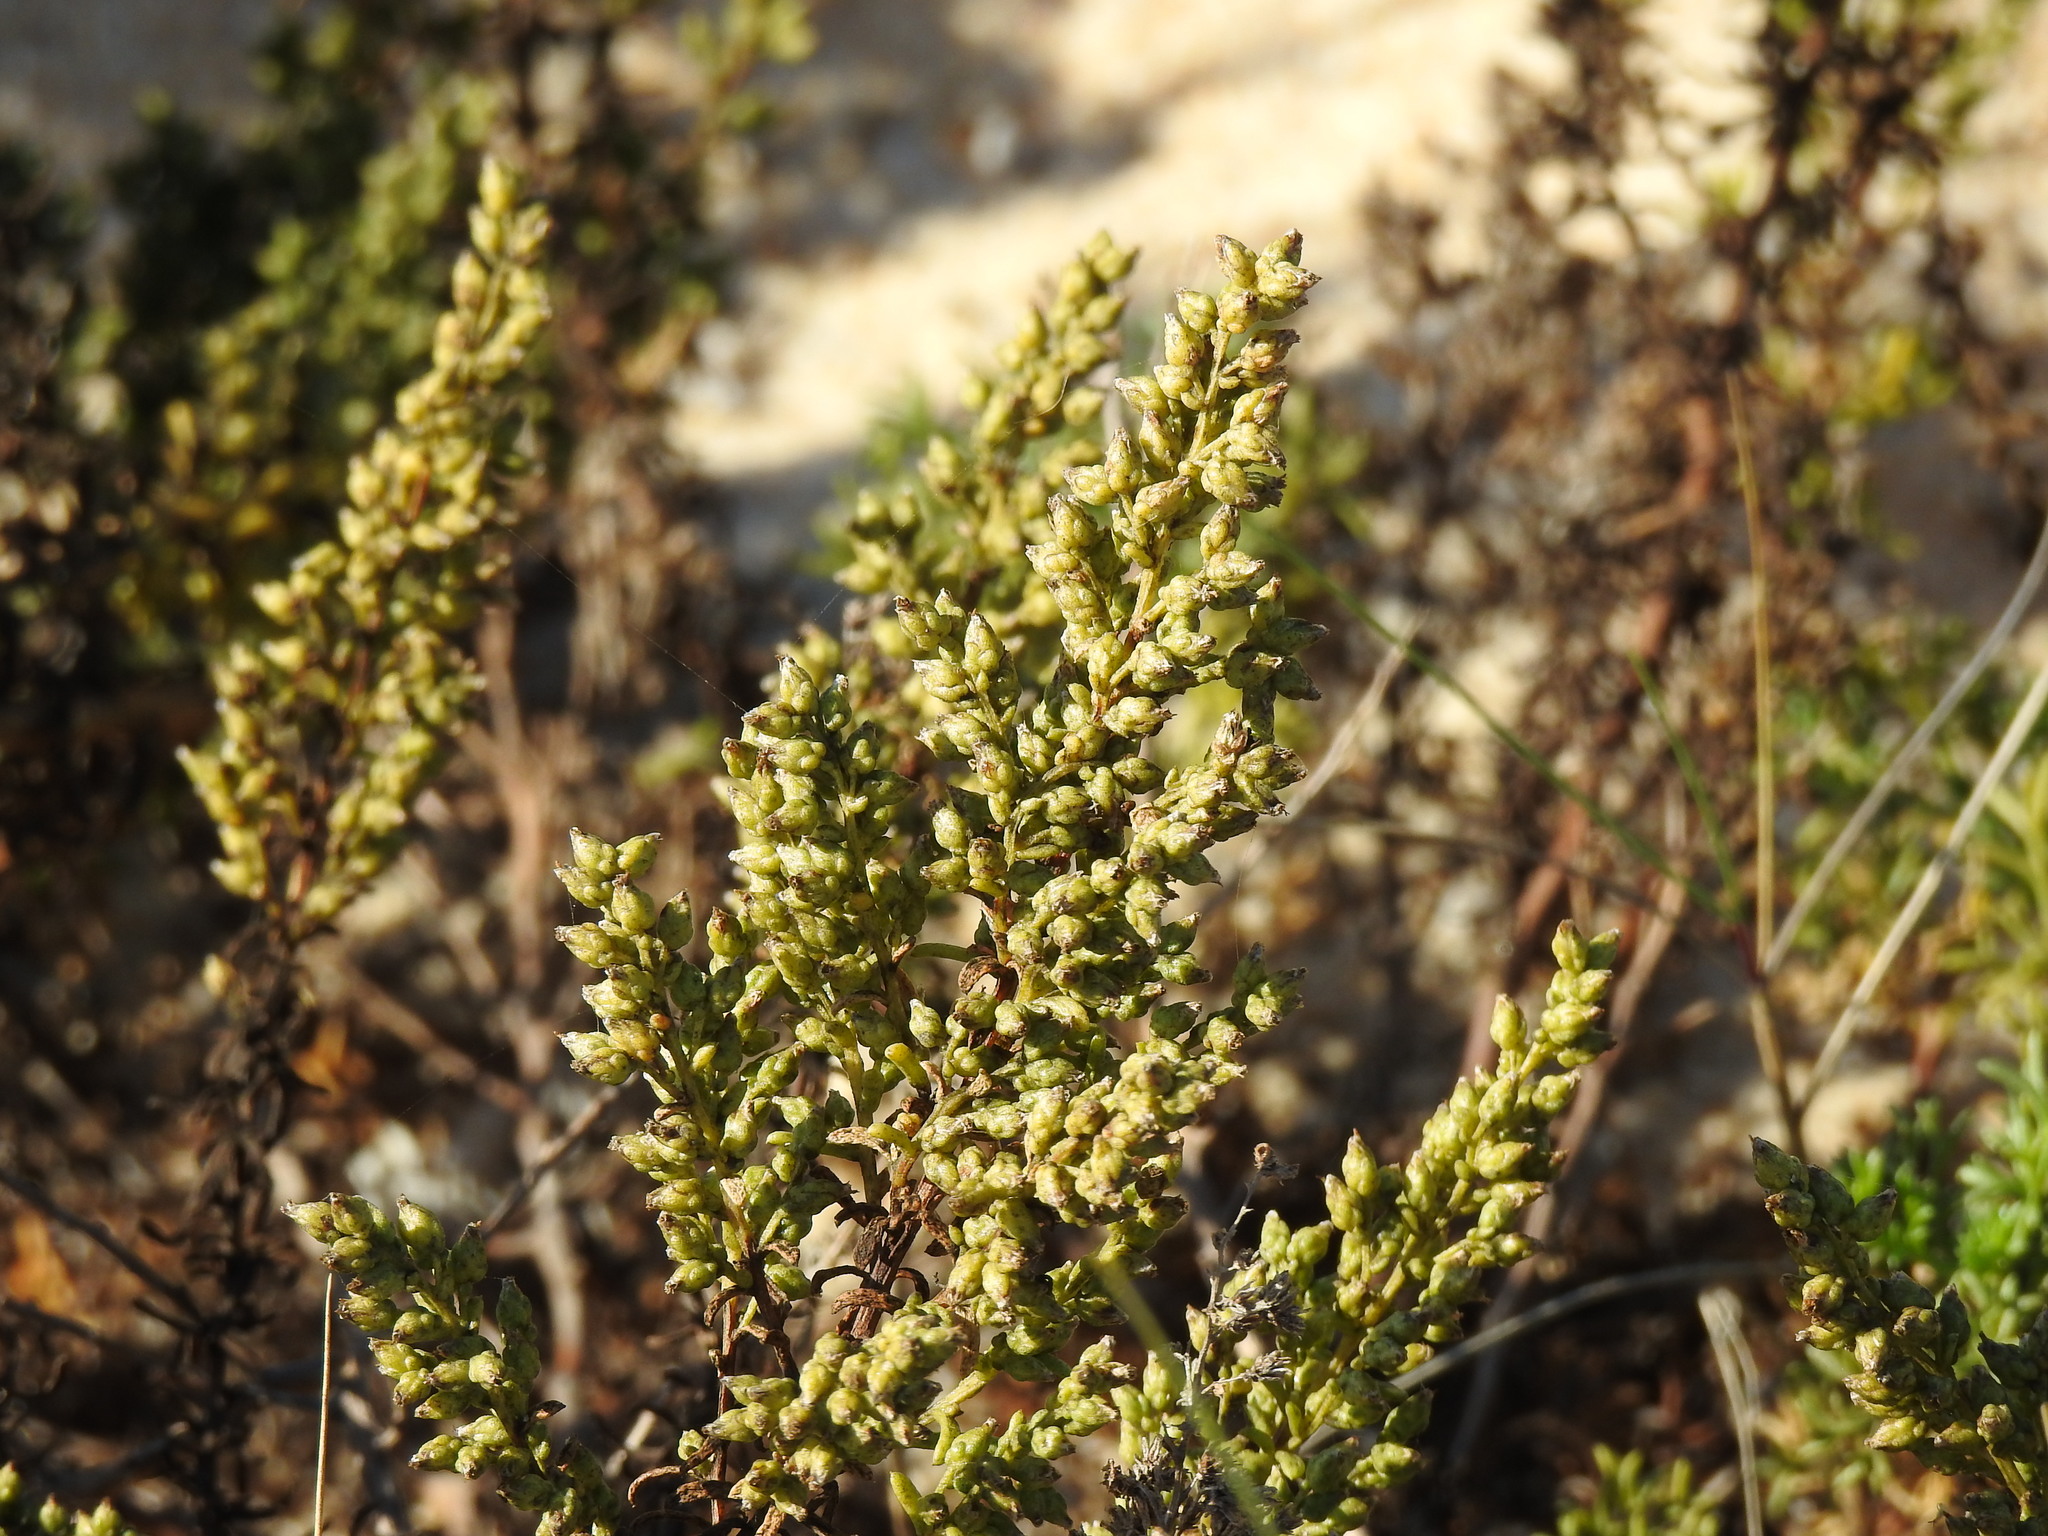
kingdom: Plantae
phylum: Tracheophyta
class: Magnoliopsida
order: Asterales
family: Asteraceae
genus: Artemisia
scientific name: Artemisia crithmifolia
